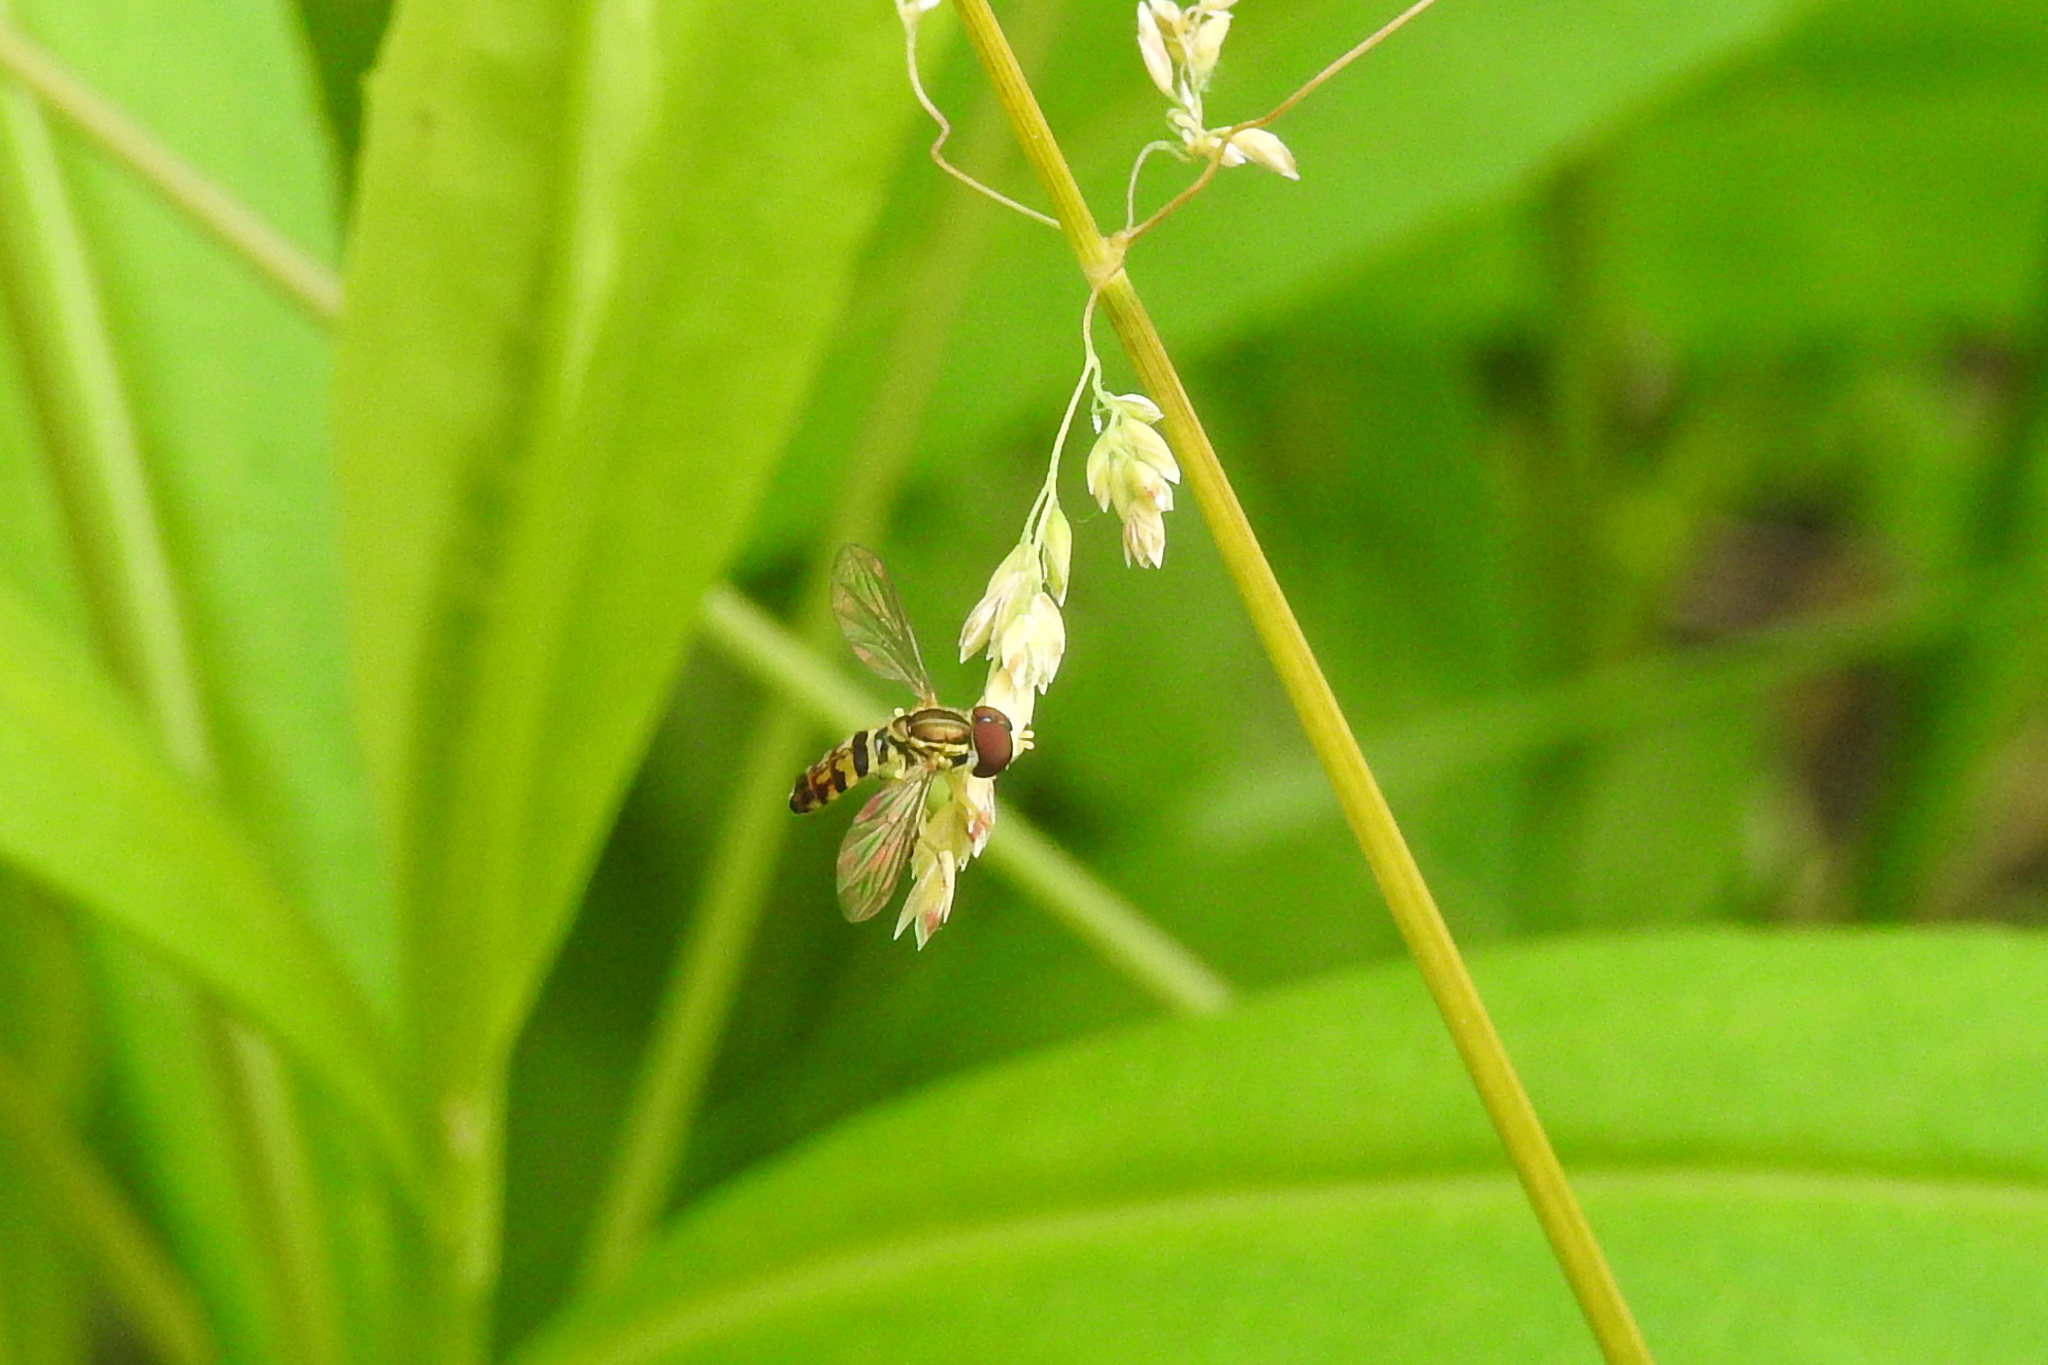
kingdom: Animalia
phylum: Arthropoda
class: Insecta
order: Diptera
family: Syrphidae
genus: Toxomerus
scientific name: Toxomerus geminatus
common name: Eastern calligrapher
